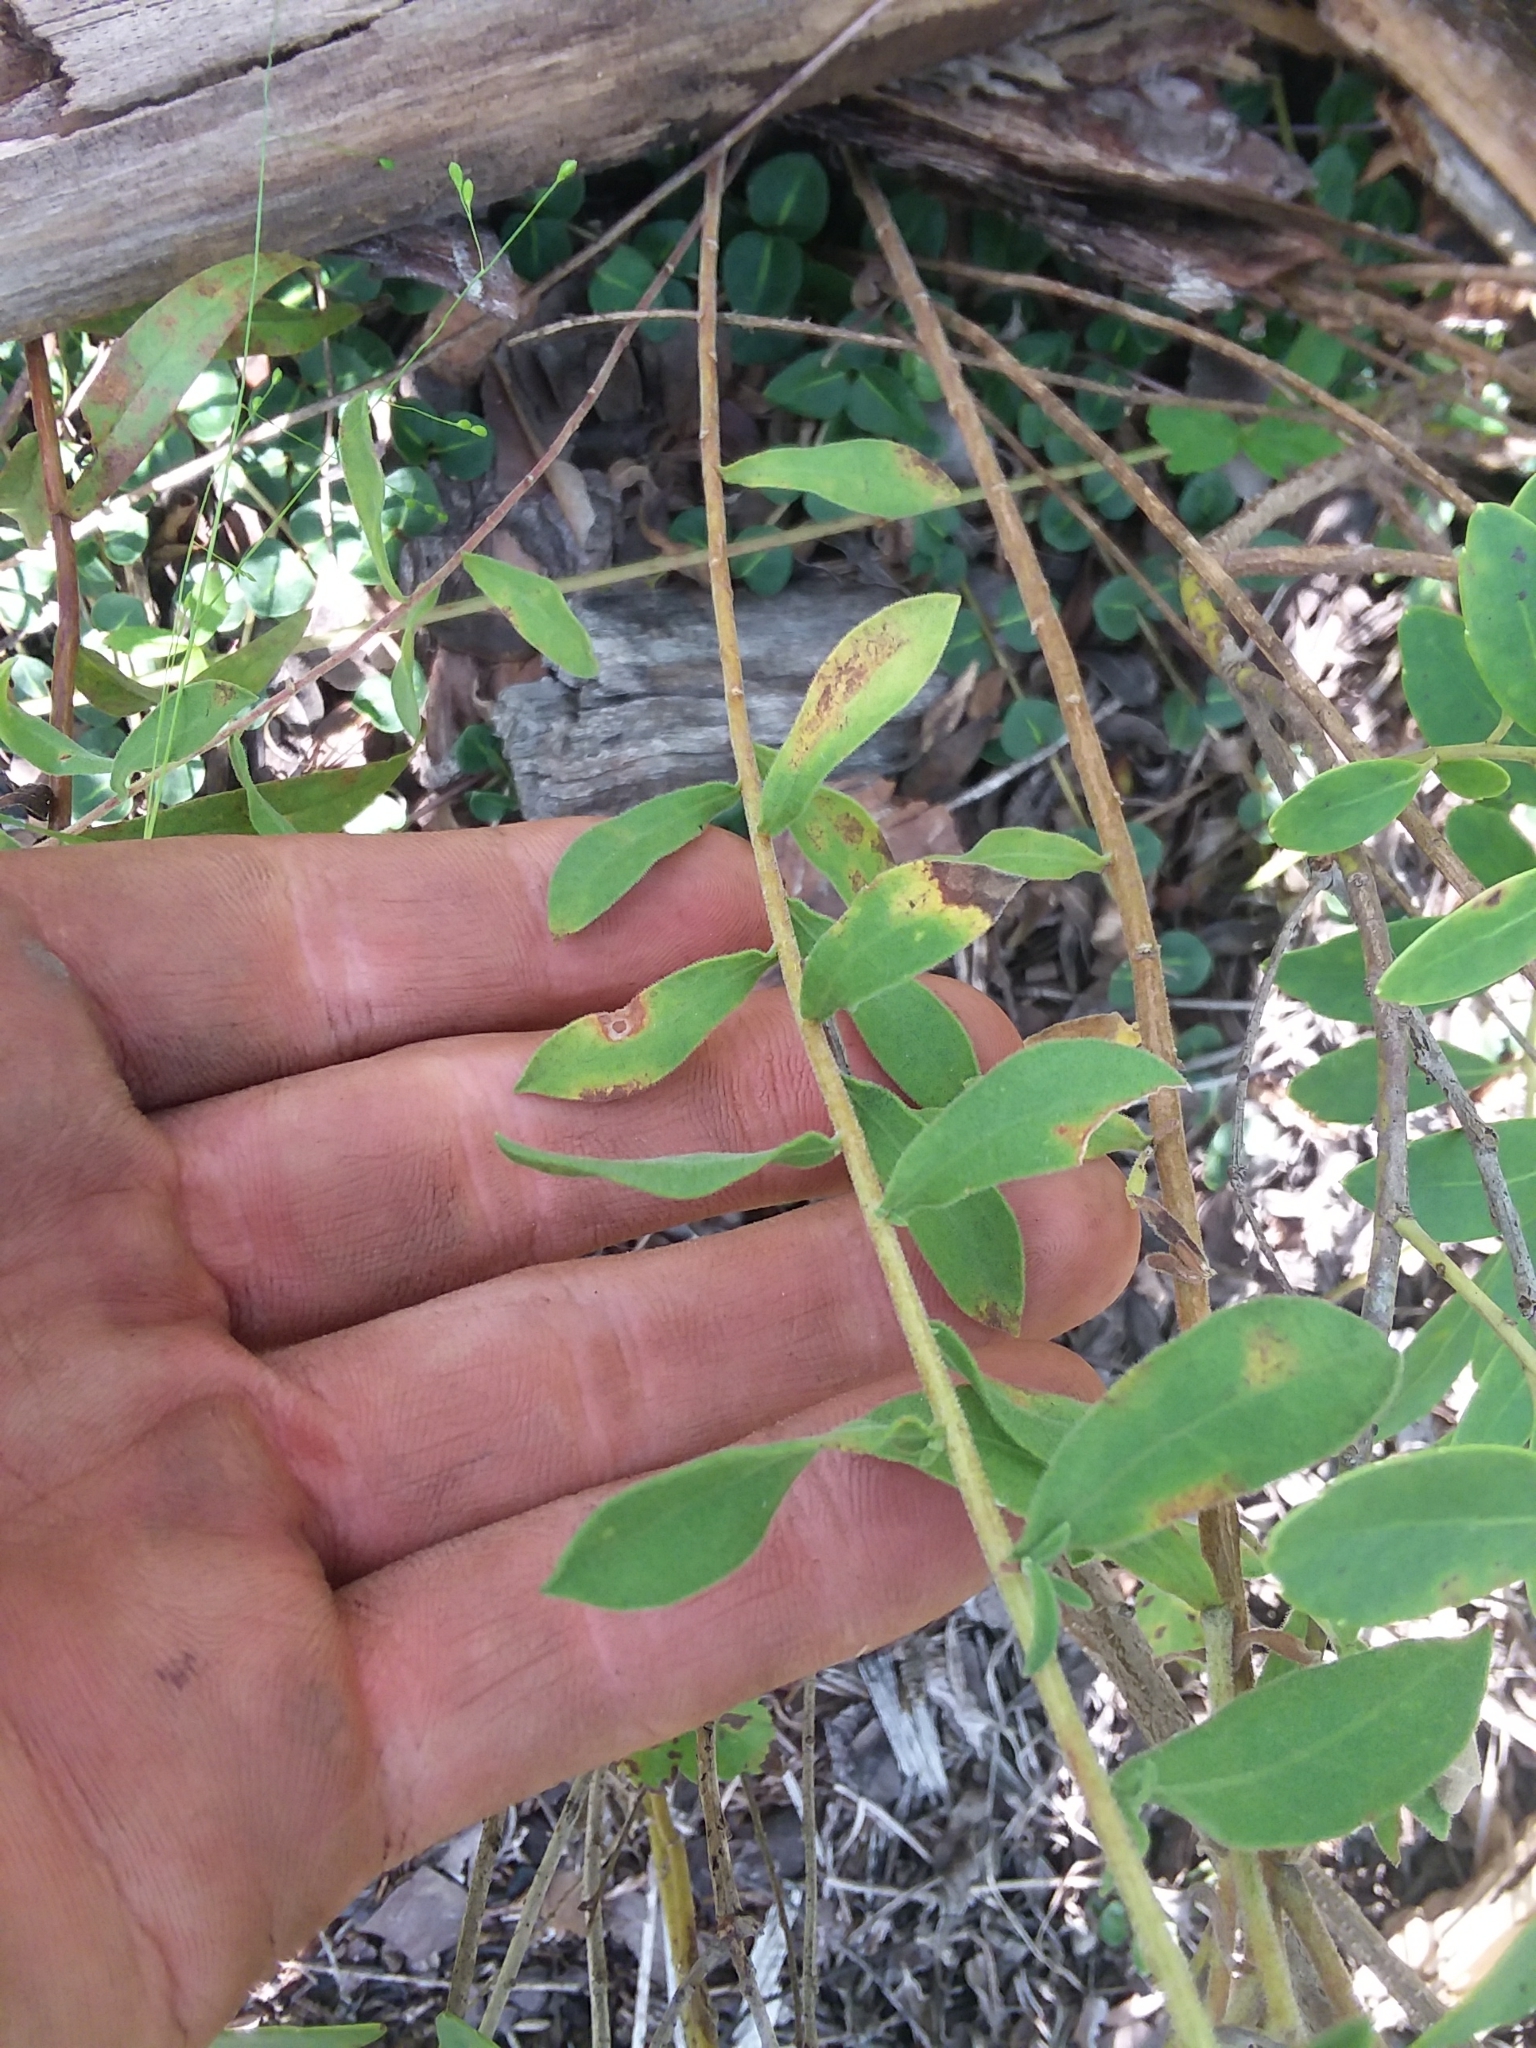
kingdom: Plantae
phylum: Tracheophyta
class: Magnoliopsida
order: Asterales
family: Asteraceae
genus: Sericocarpus
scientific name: Sericocarpus tortifolius
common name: Dixie aster
